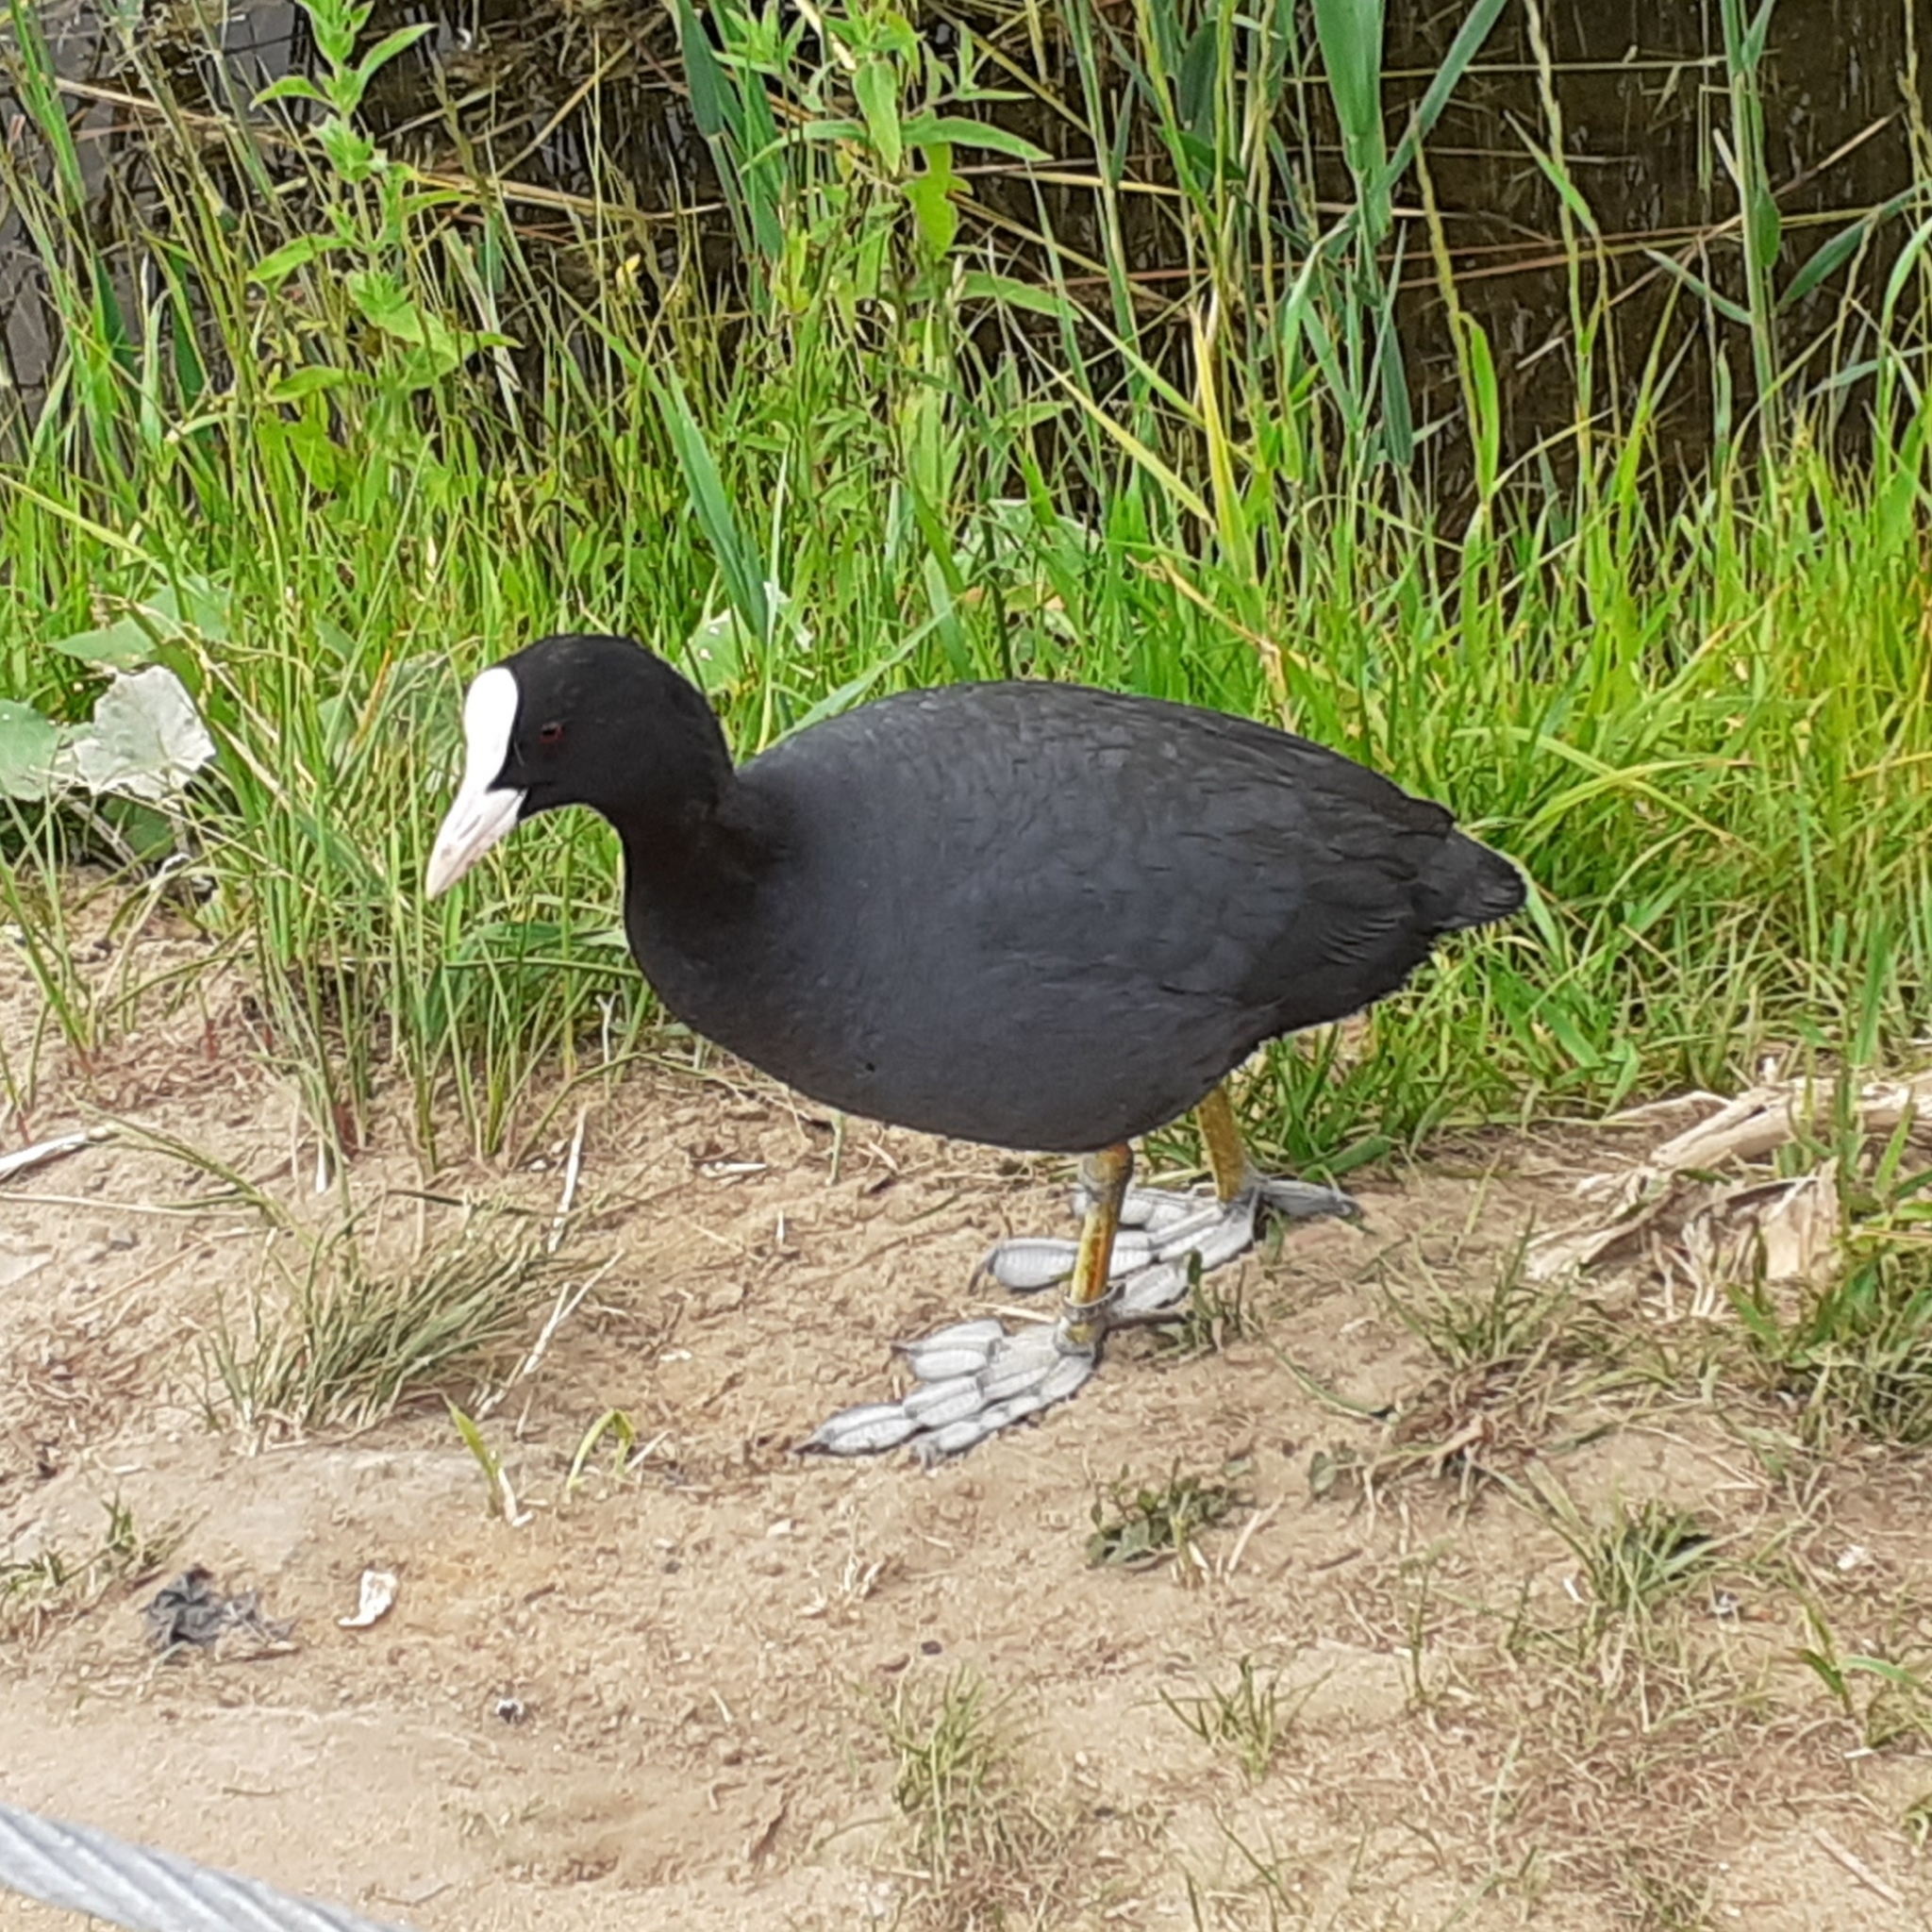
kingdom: Animalia
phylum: Chordata
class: Aves
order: Gruiformes
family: Rallidae
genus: Fulica
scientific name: Fulica atra
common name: Eurasian coot
